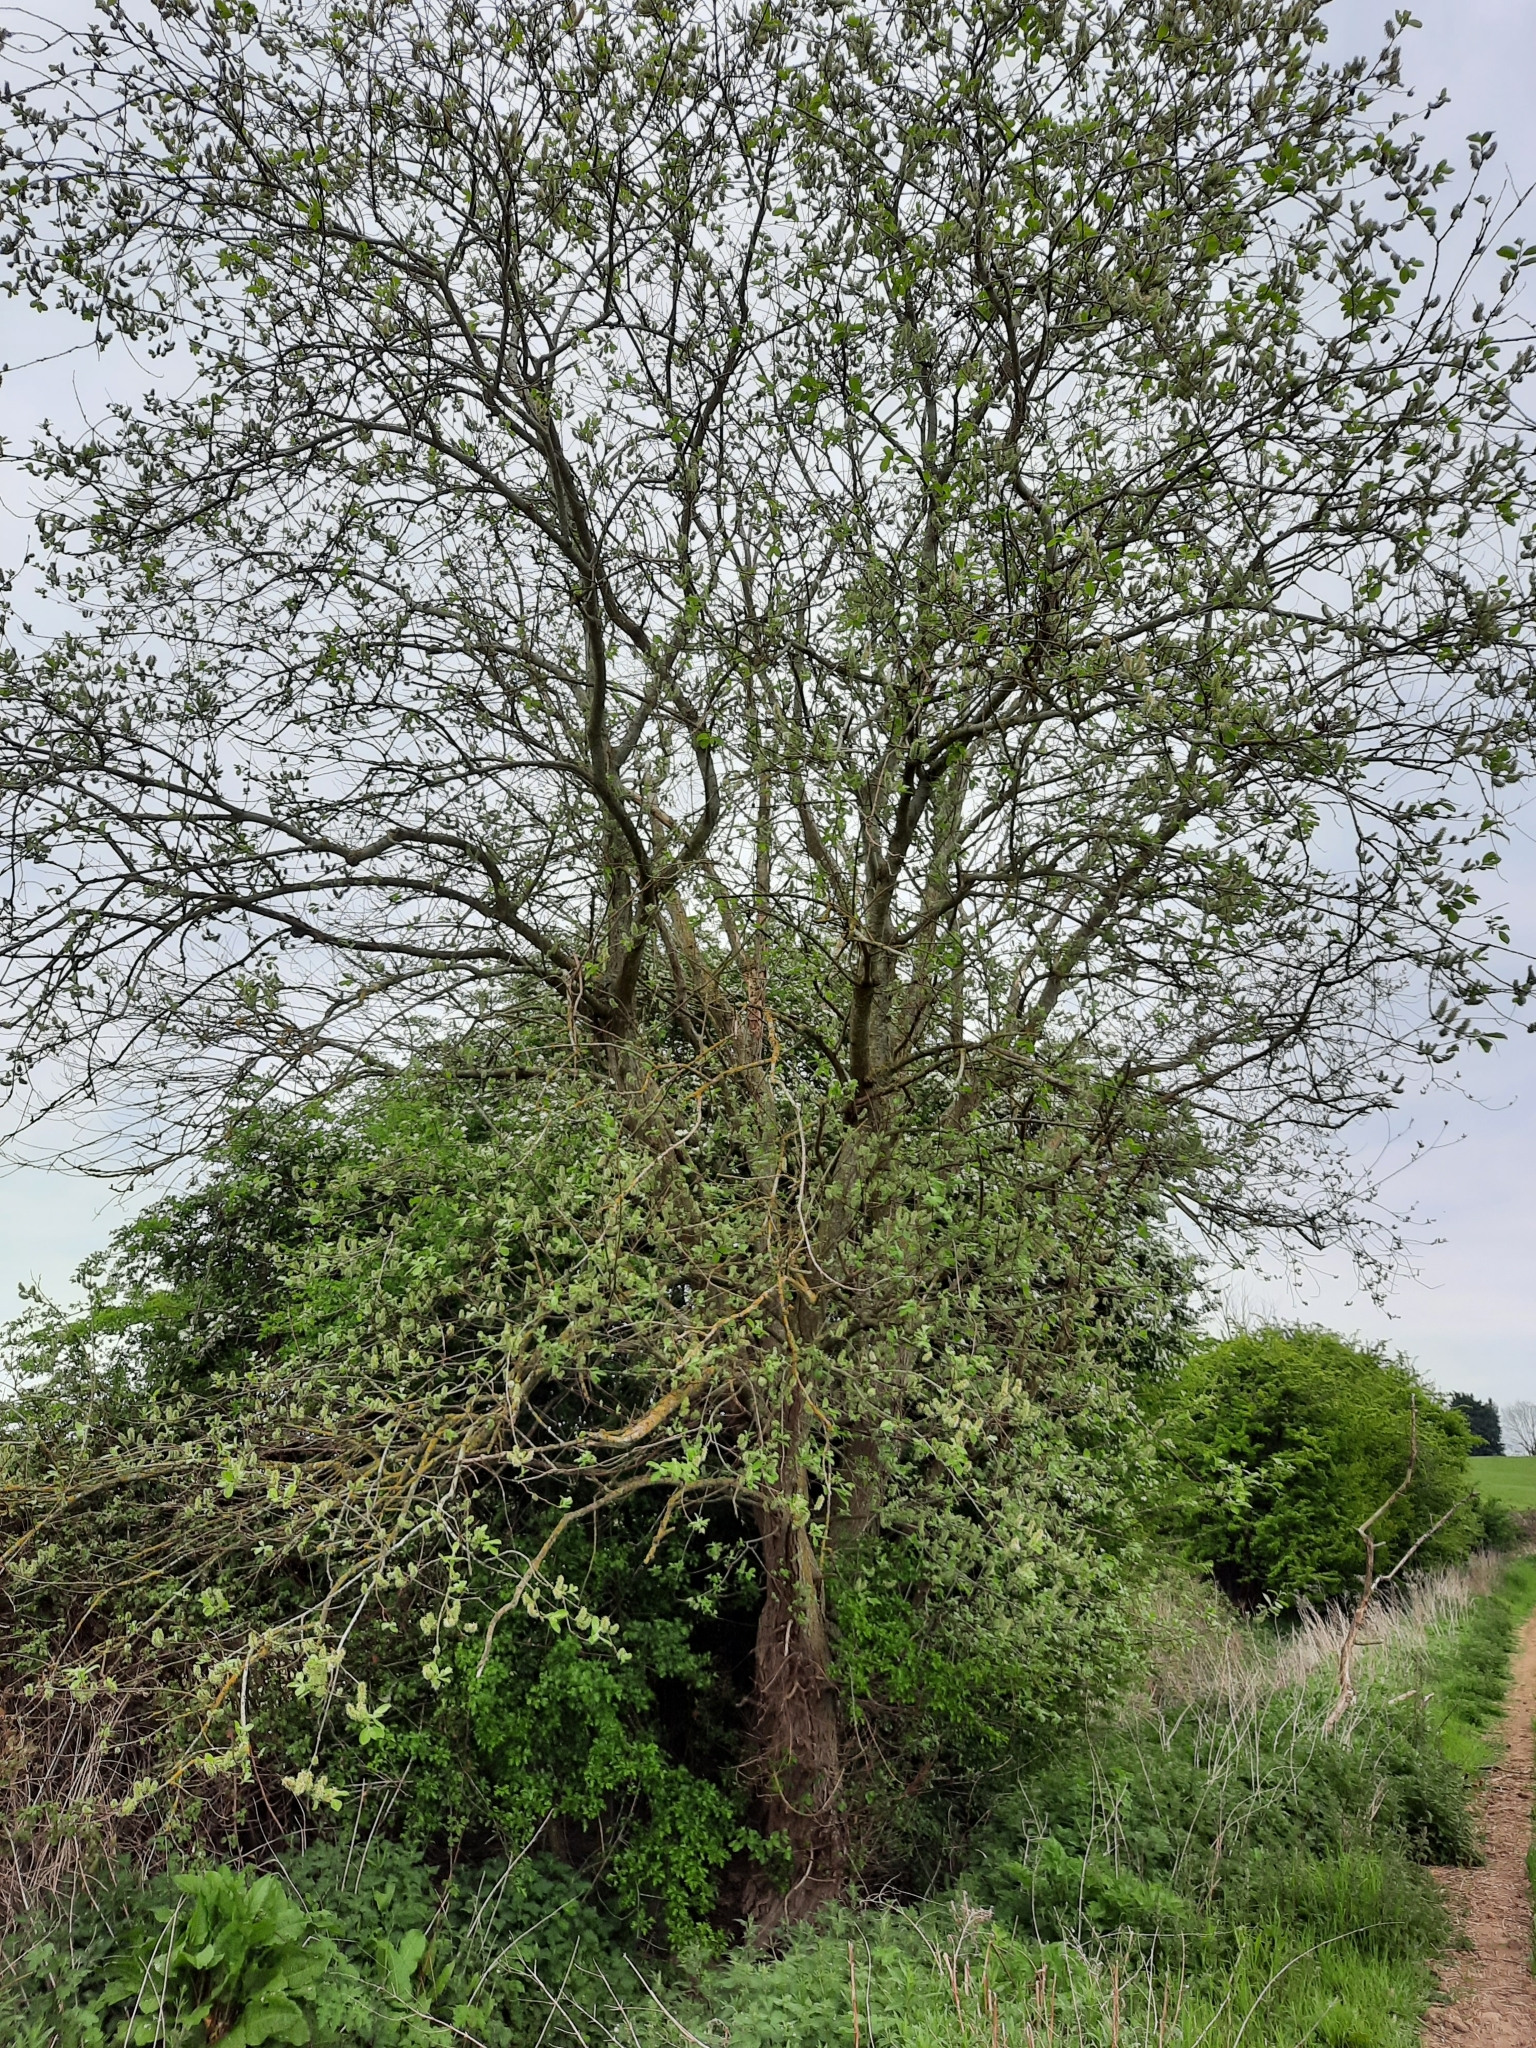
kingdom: Plantae
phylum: Tracheophyta
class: Magnoliopsida
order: Malpighiales
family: Salicaceae
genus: Salix
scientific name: Salix caprea
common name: Goat willow
